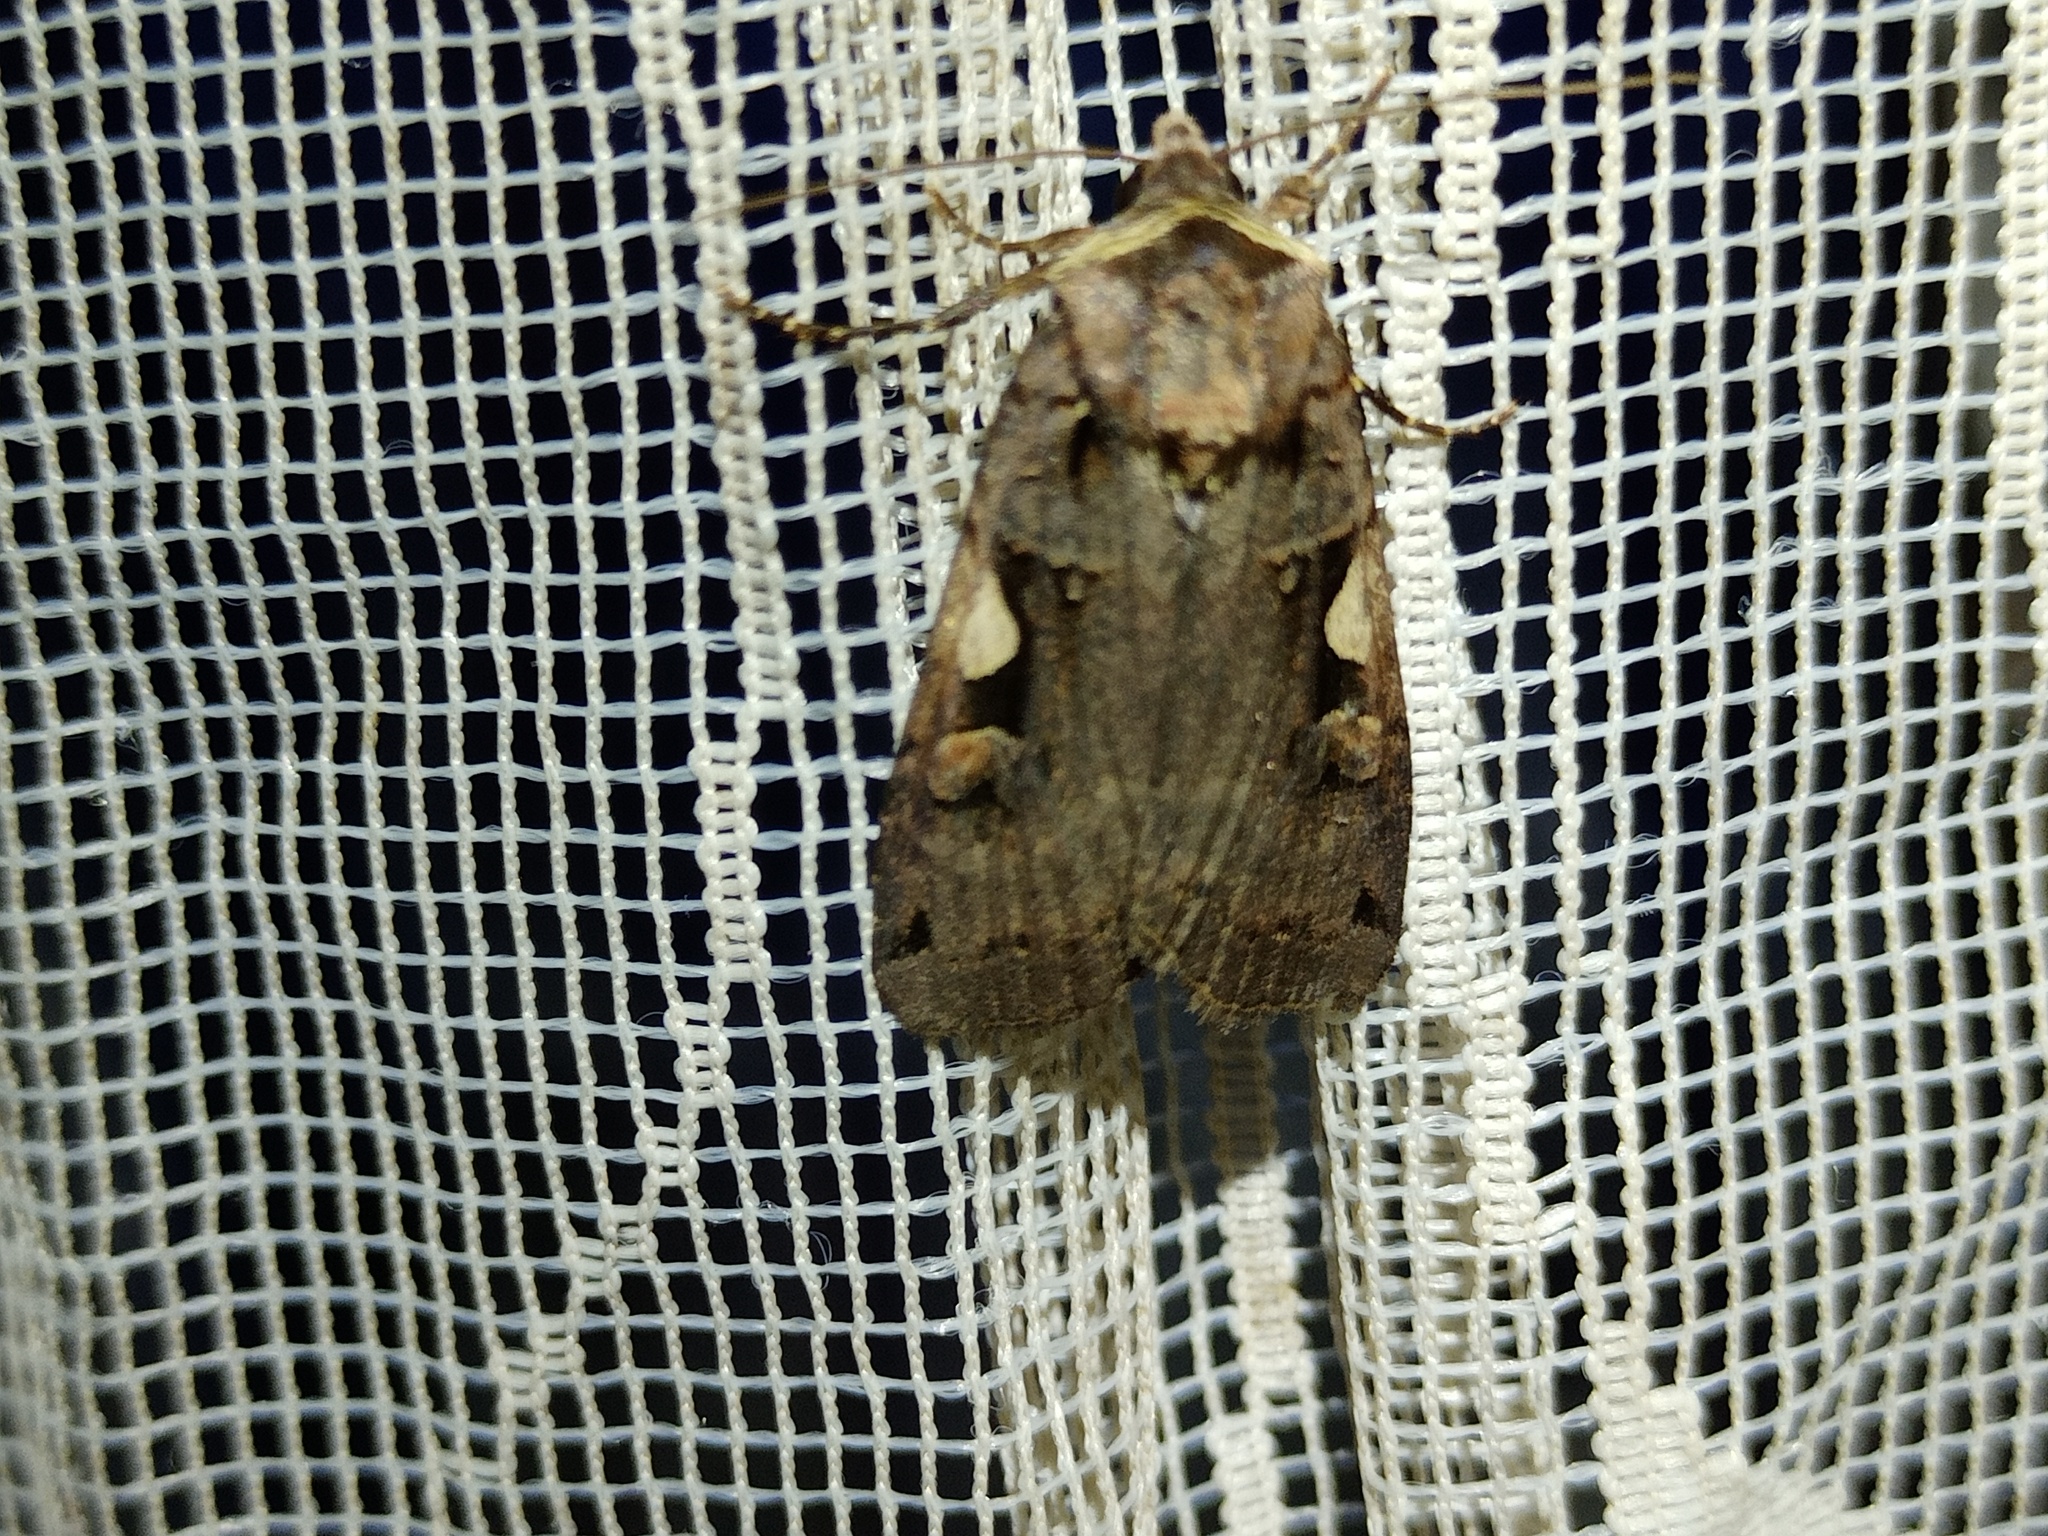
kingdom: Animalia
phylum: Arthropoda
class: Insecta
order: Lepidoptera
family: Noctuidae
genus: Xestia
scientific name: Xestia c-nigrum
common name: Setaceous hebrew character
